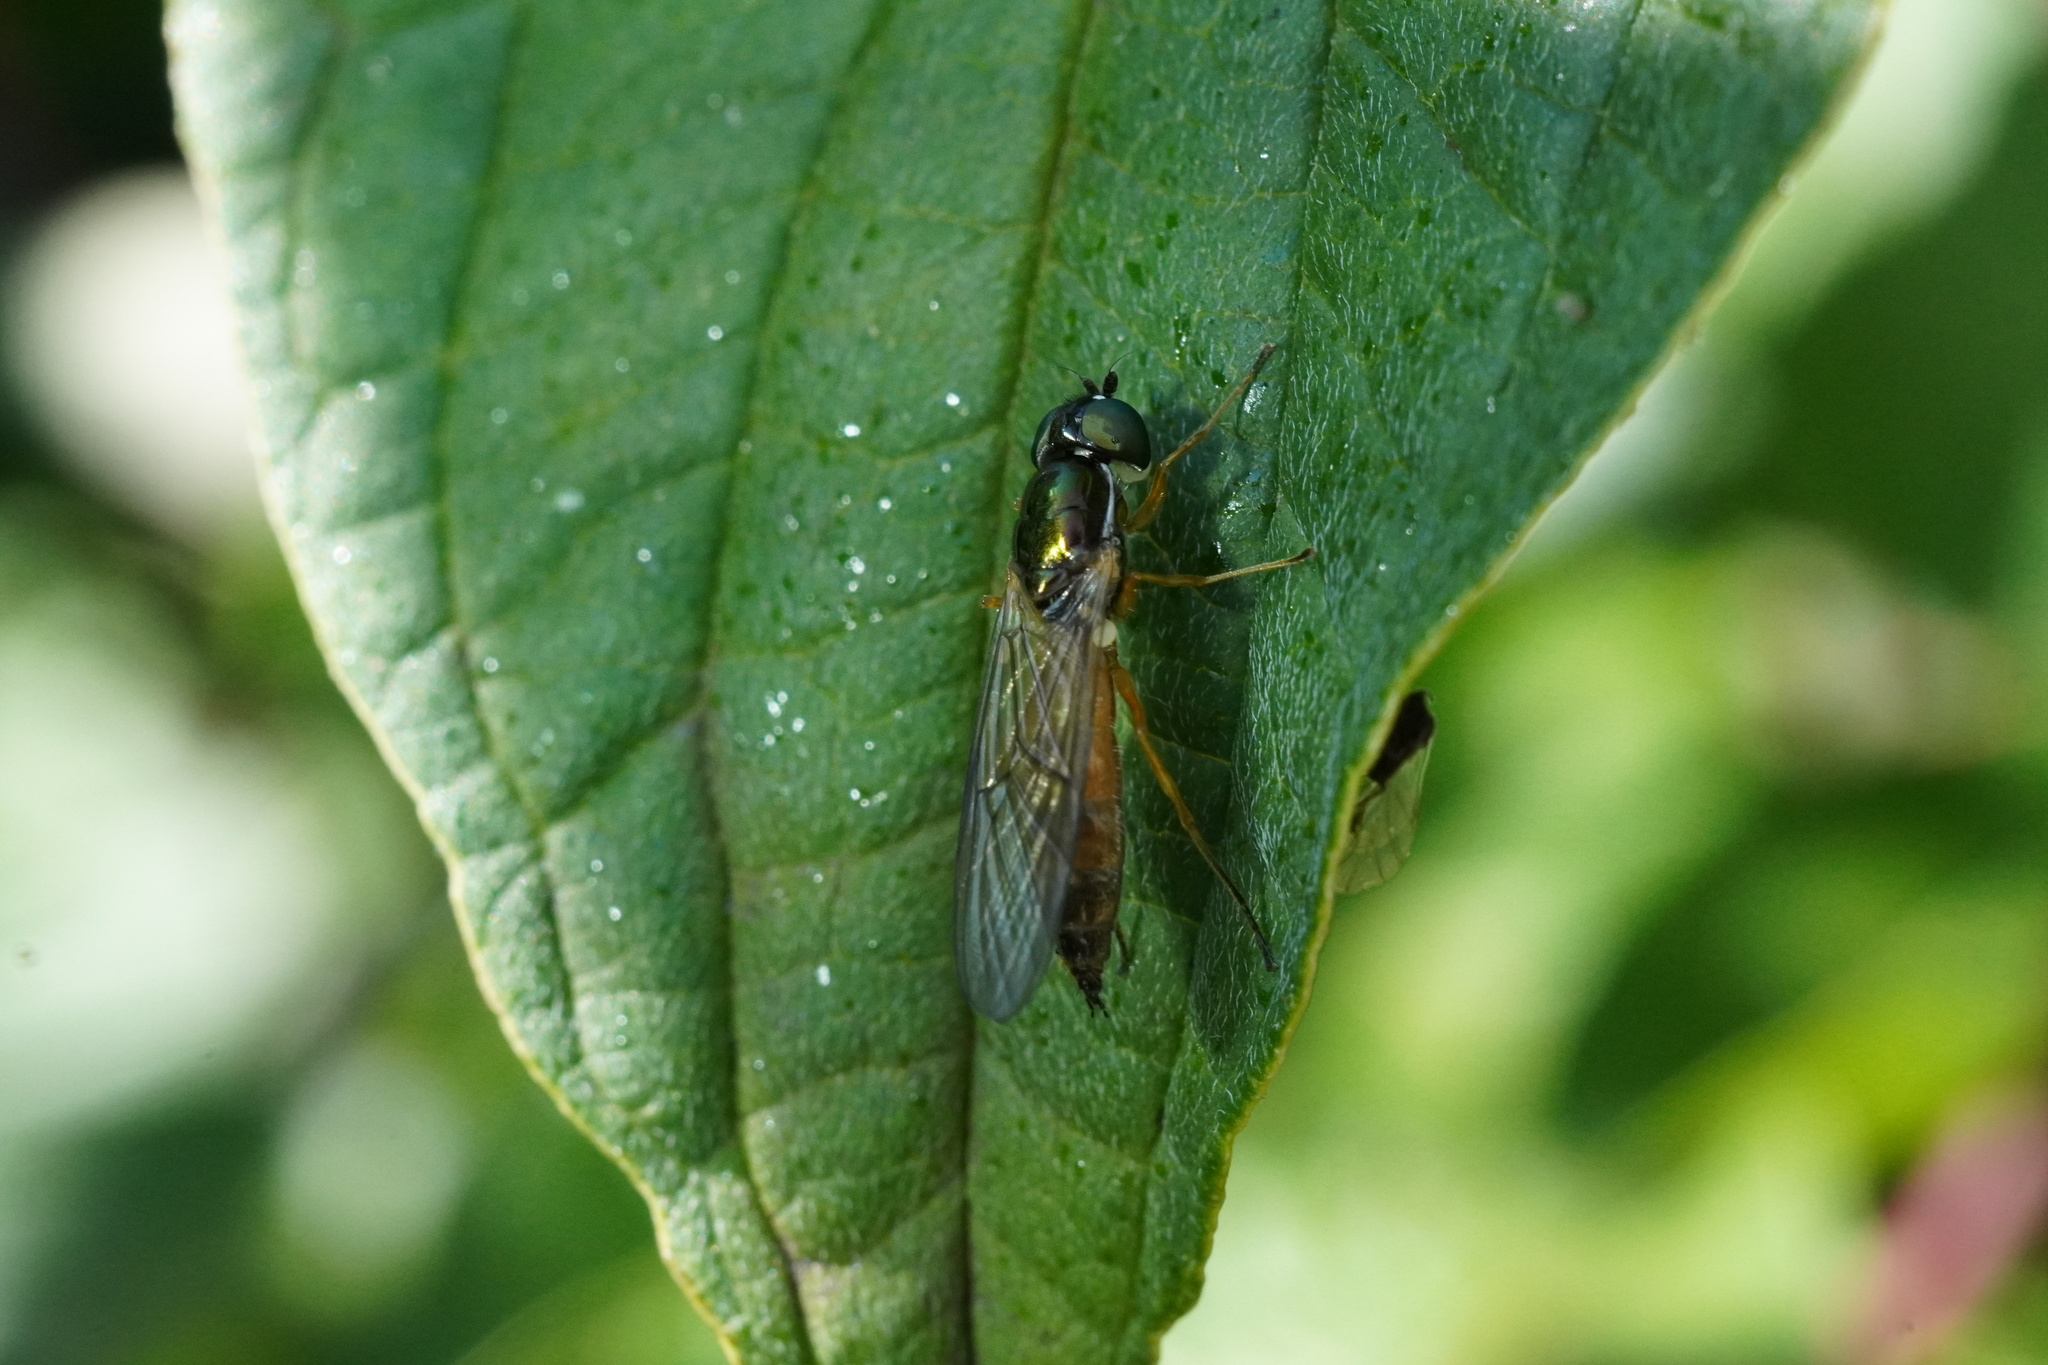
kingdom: Animalia
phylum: Arthropoda
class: Insecta
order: Diptera
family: Stratiomyidae
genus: Sargus
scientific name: Sargus bipunctatus
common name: Twin-spot centurion
